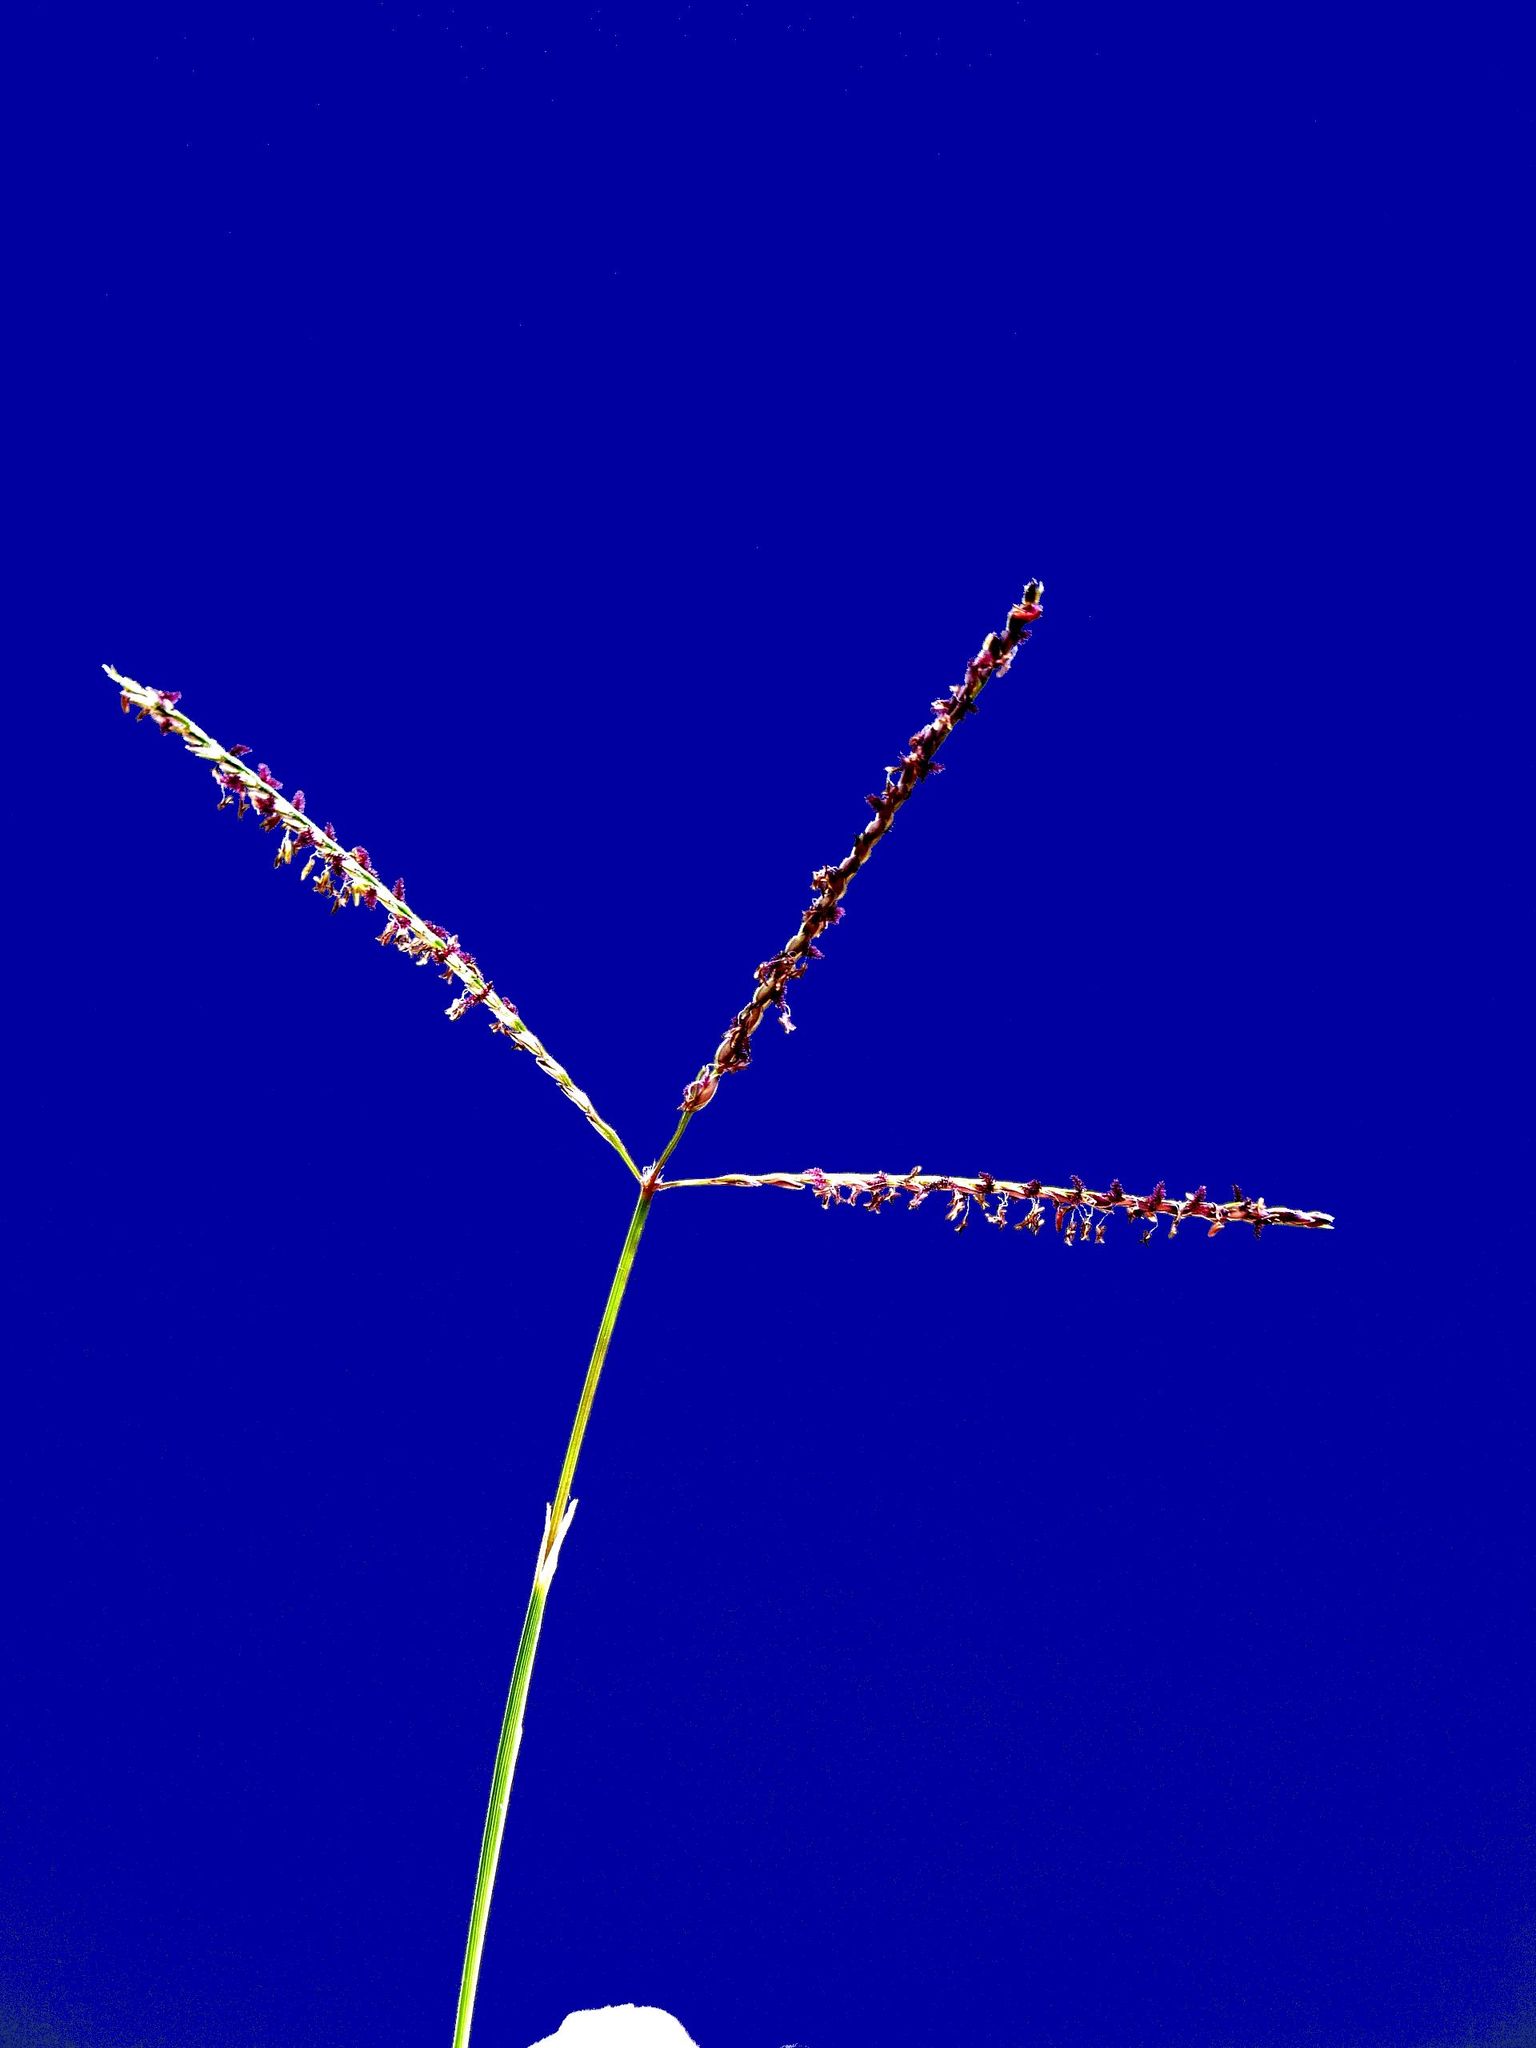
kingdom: Plantae
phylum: Tracheophyta
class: Liliopsida
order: Poales
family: Poaceae
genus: Cynodon
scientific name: Cynodon dactylon
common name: Bermuda grass
